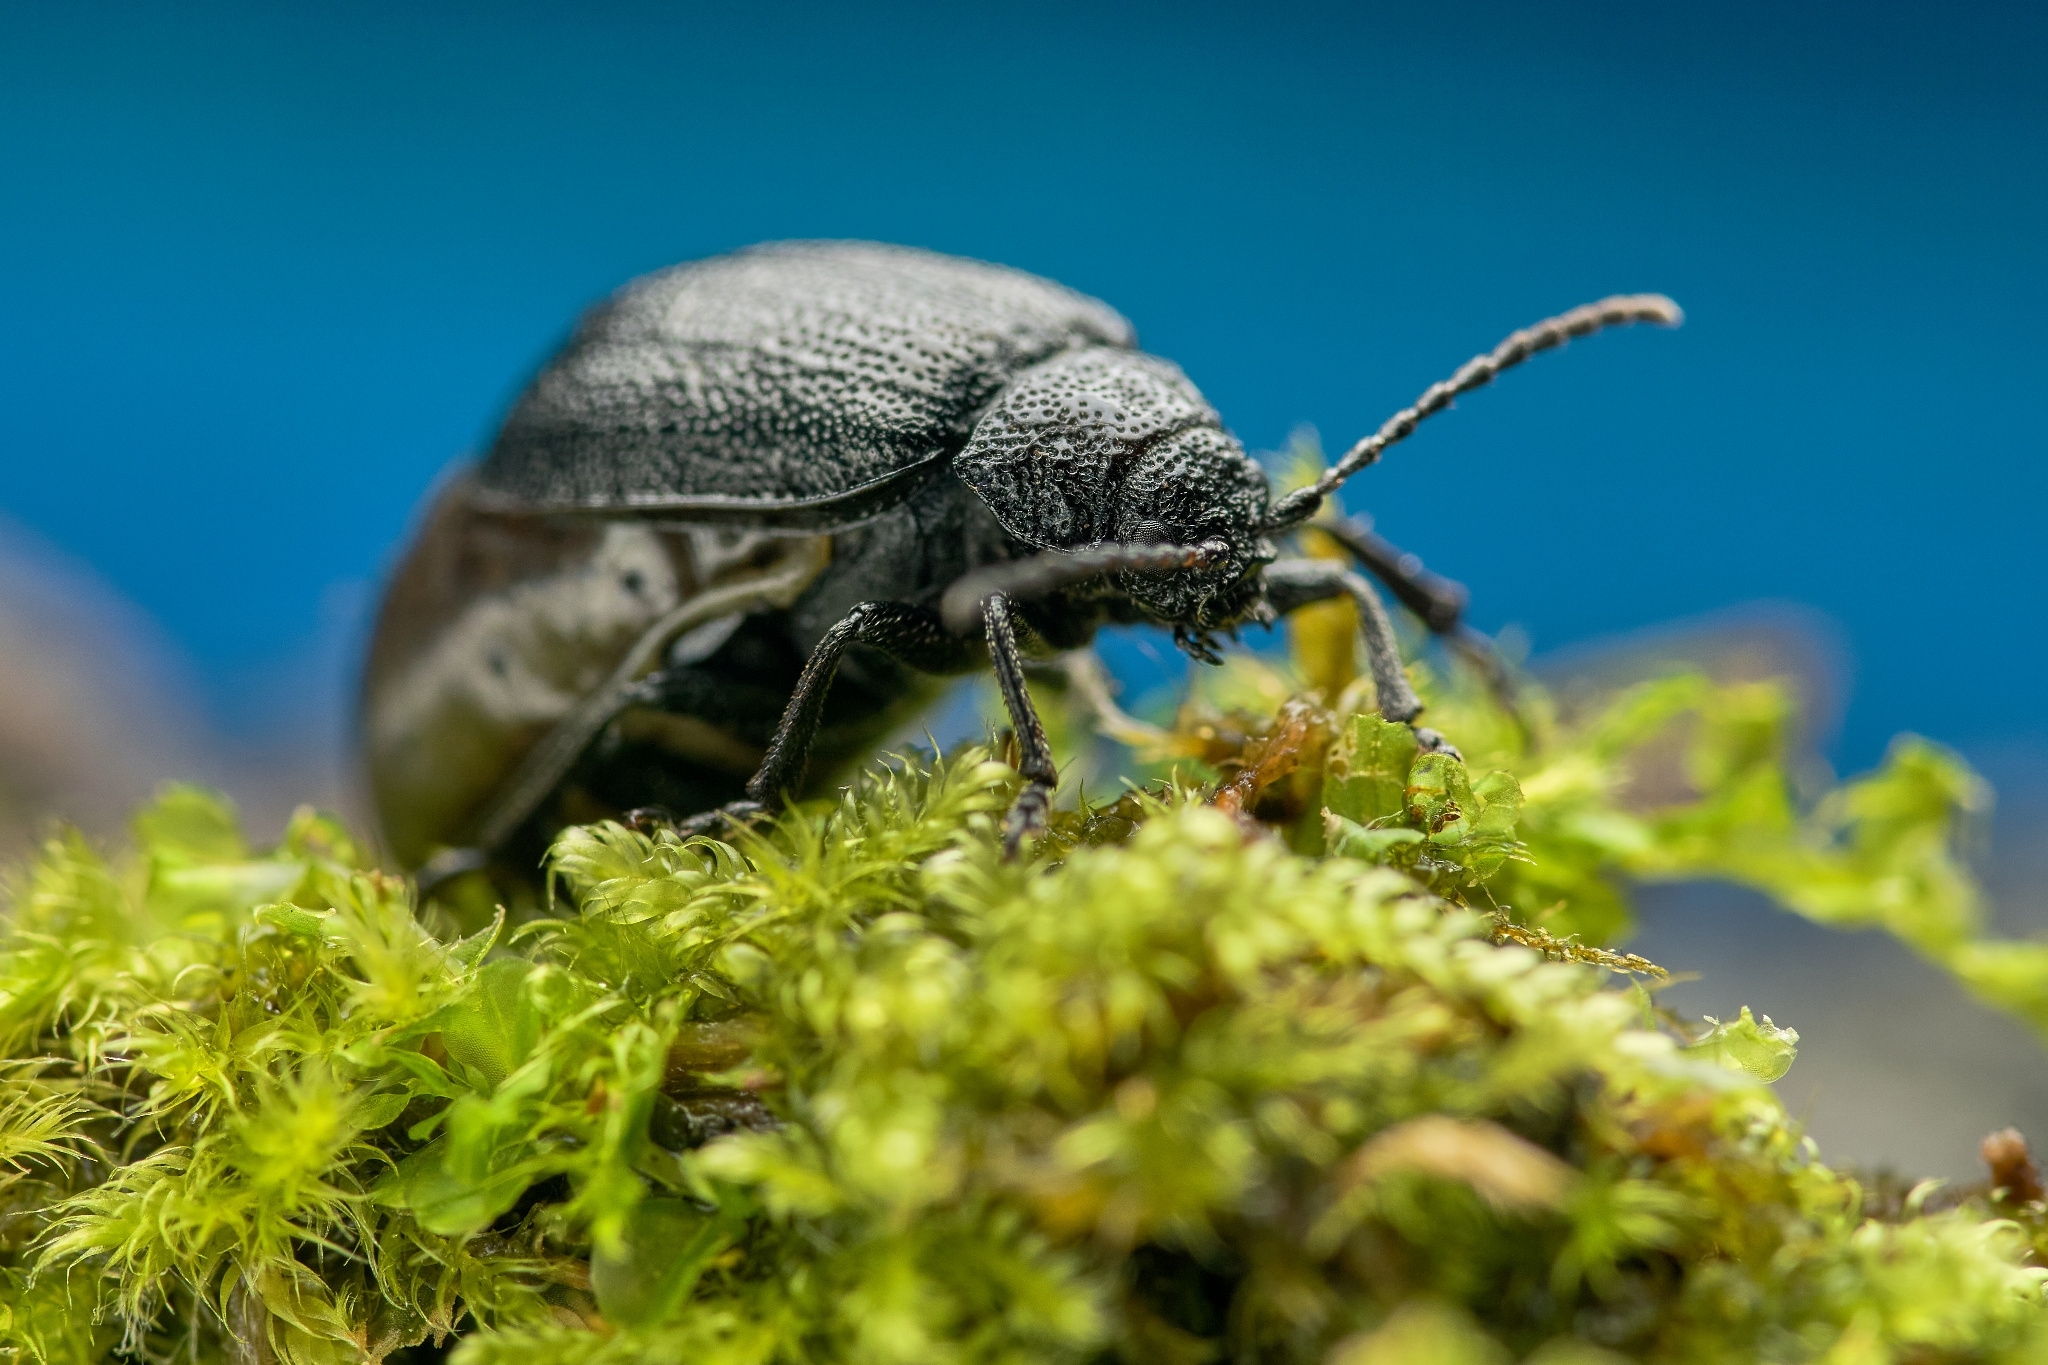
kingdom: Animalia
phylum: Arthropoda
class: Insecta
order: Coleoptera
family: Chrysomelidae
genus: Galeruca
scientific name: Galeruca tanaceti
